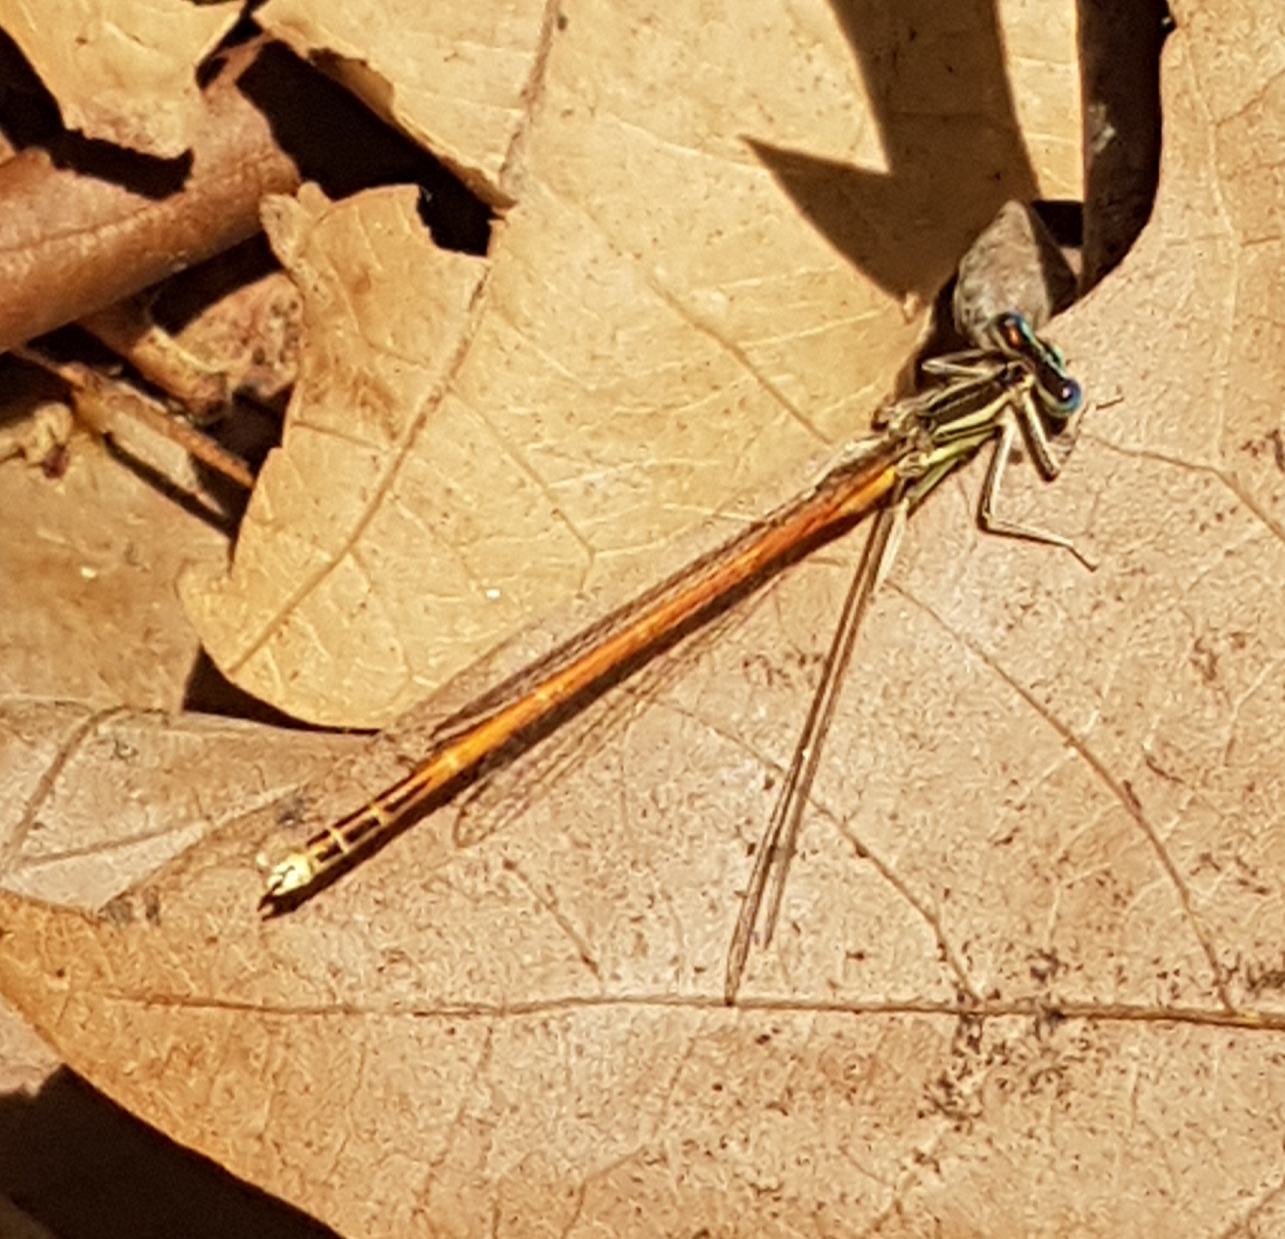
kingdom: Animalia
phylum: Arthropoda
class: Insecta
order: Odonata
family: Platycnemididae
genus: Platycnemis
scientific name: Platycnemis acutipennis
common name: Orange featherleg
